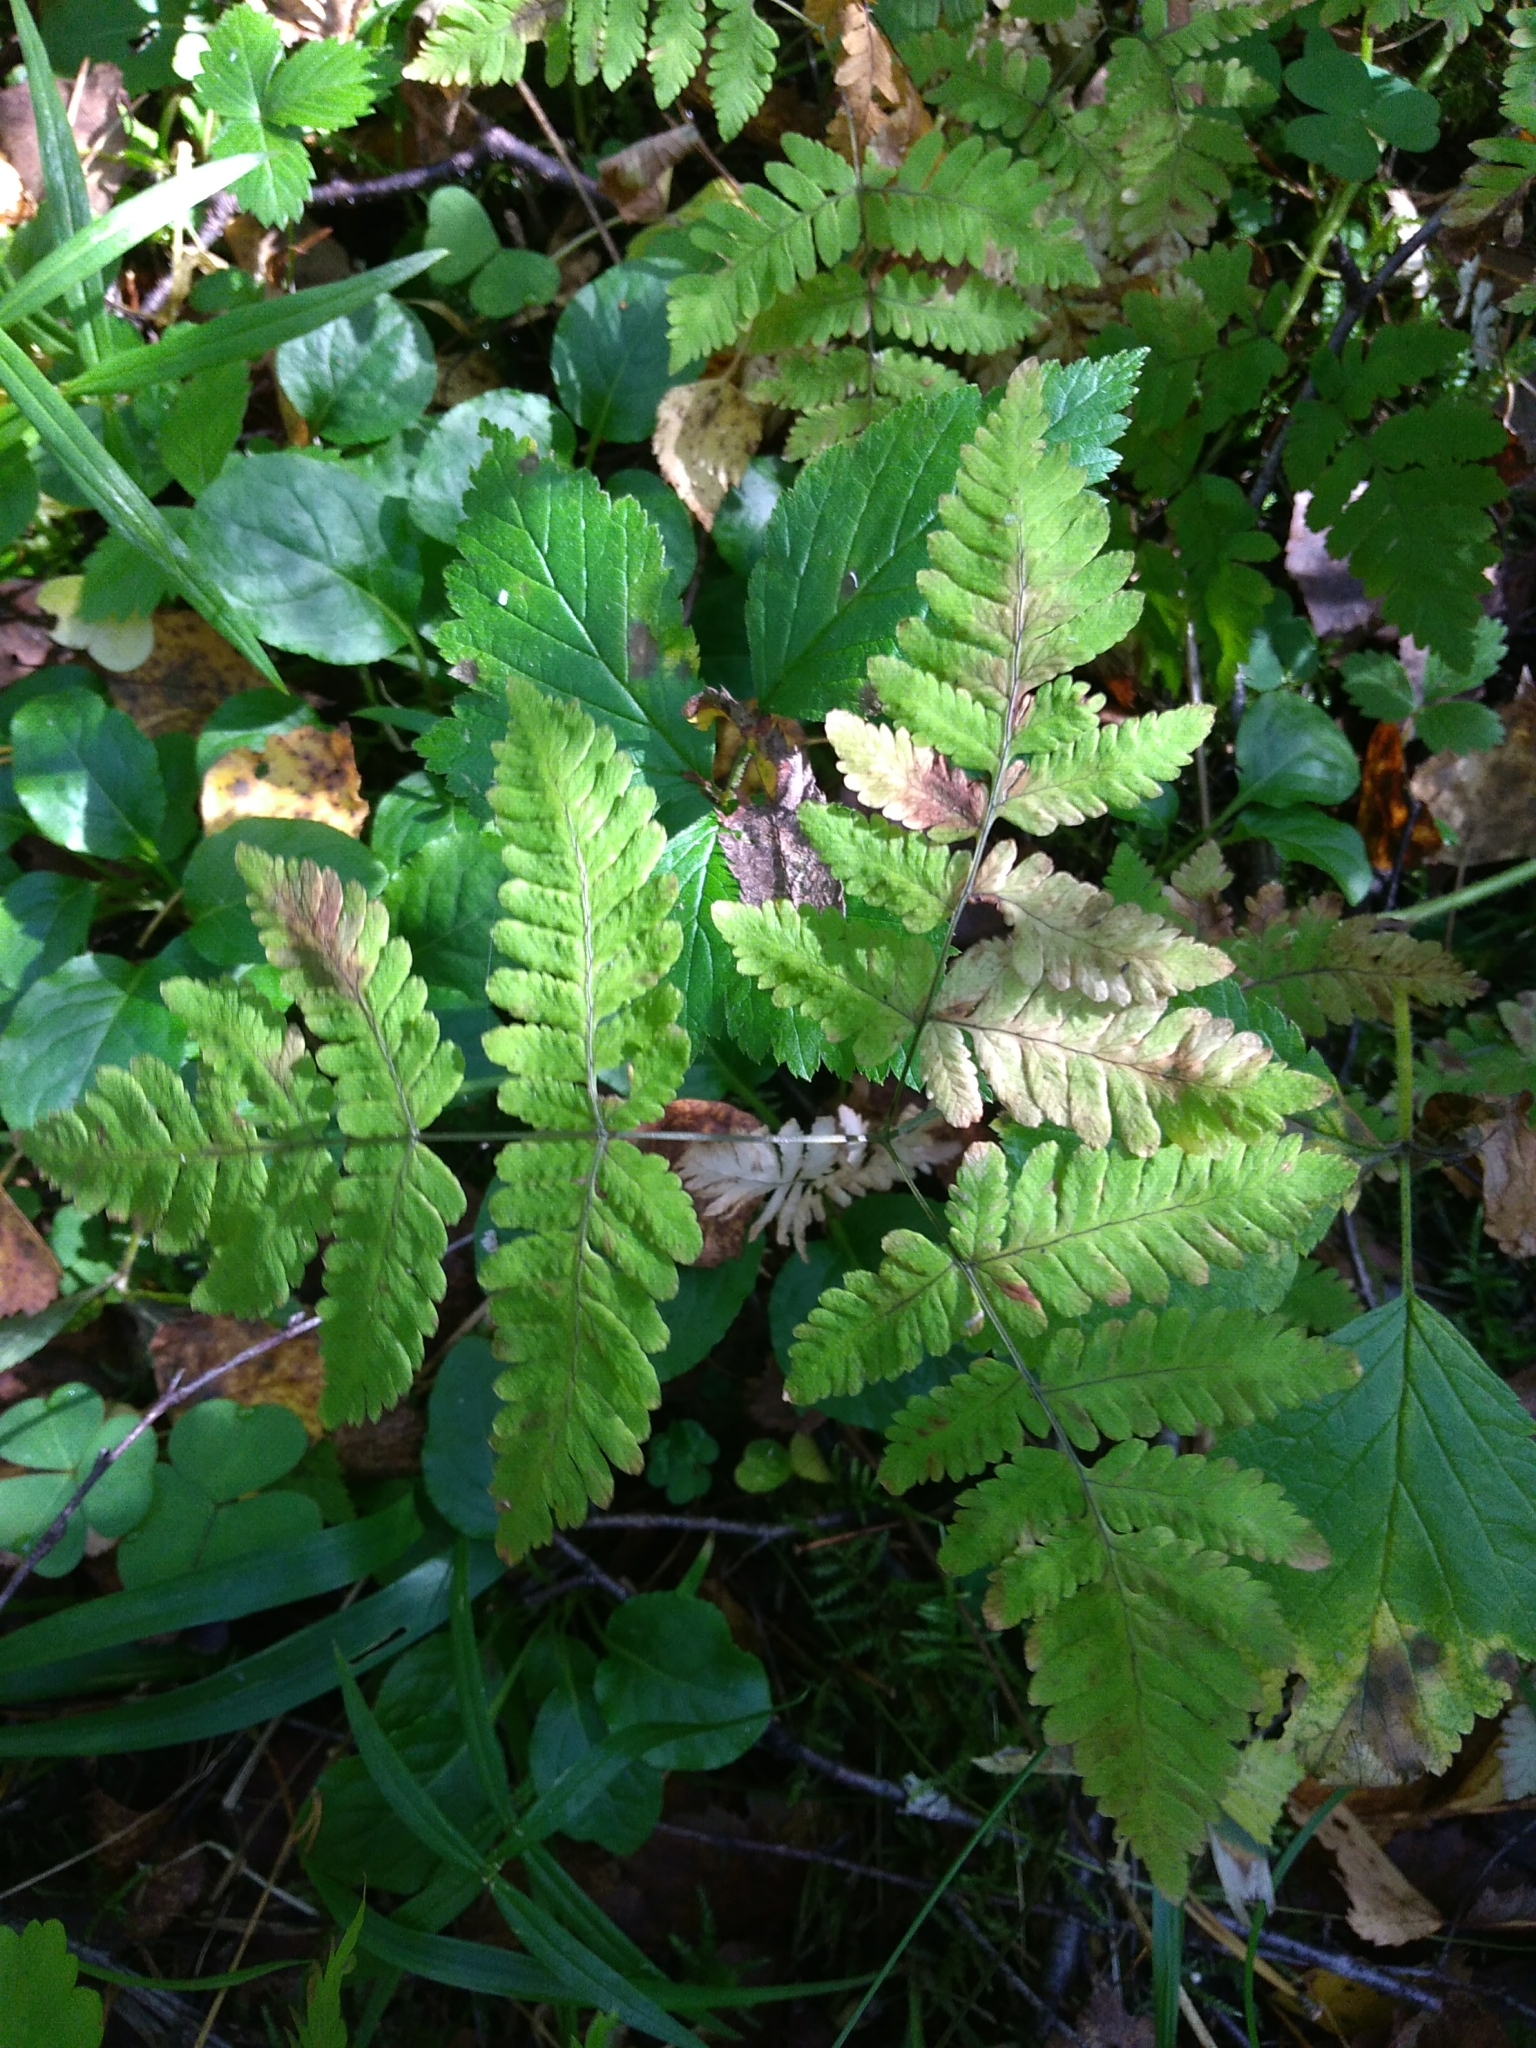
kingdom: Plantae
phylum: Tracheophyta
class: Polypodiopsida
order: Polypodiales
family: Cystopteridaceae
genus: Gymnocarpium
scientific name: Gymnocarpium dryopteris
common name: Oak fern
